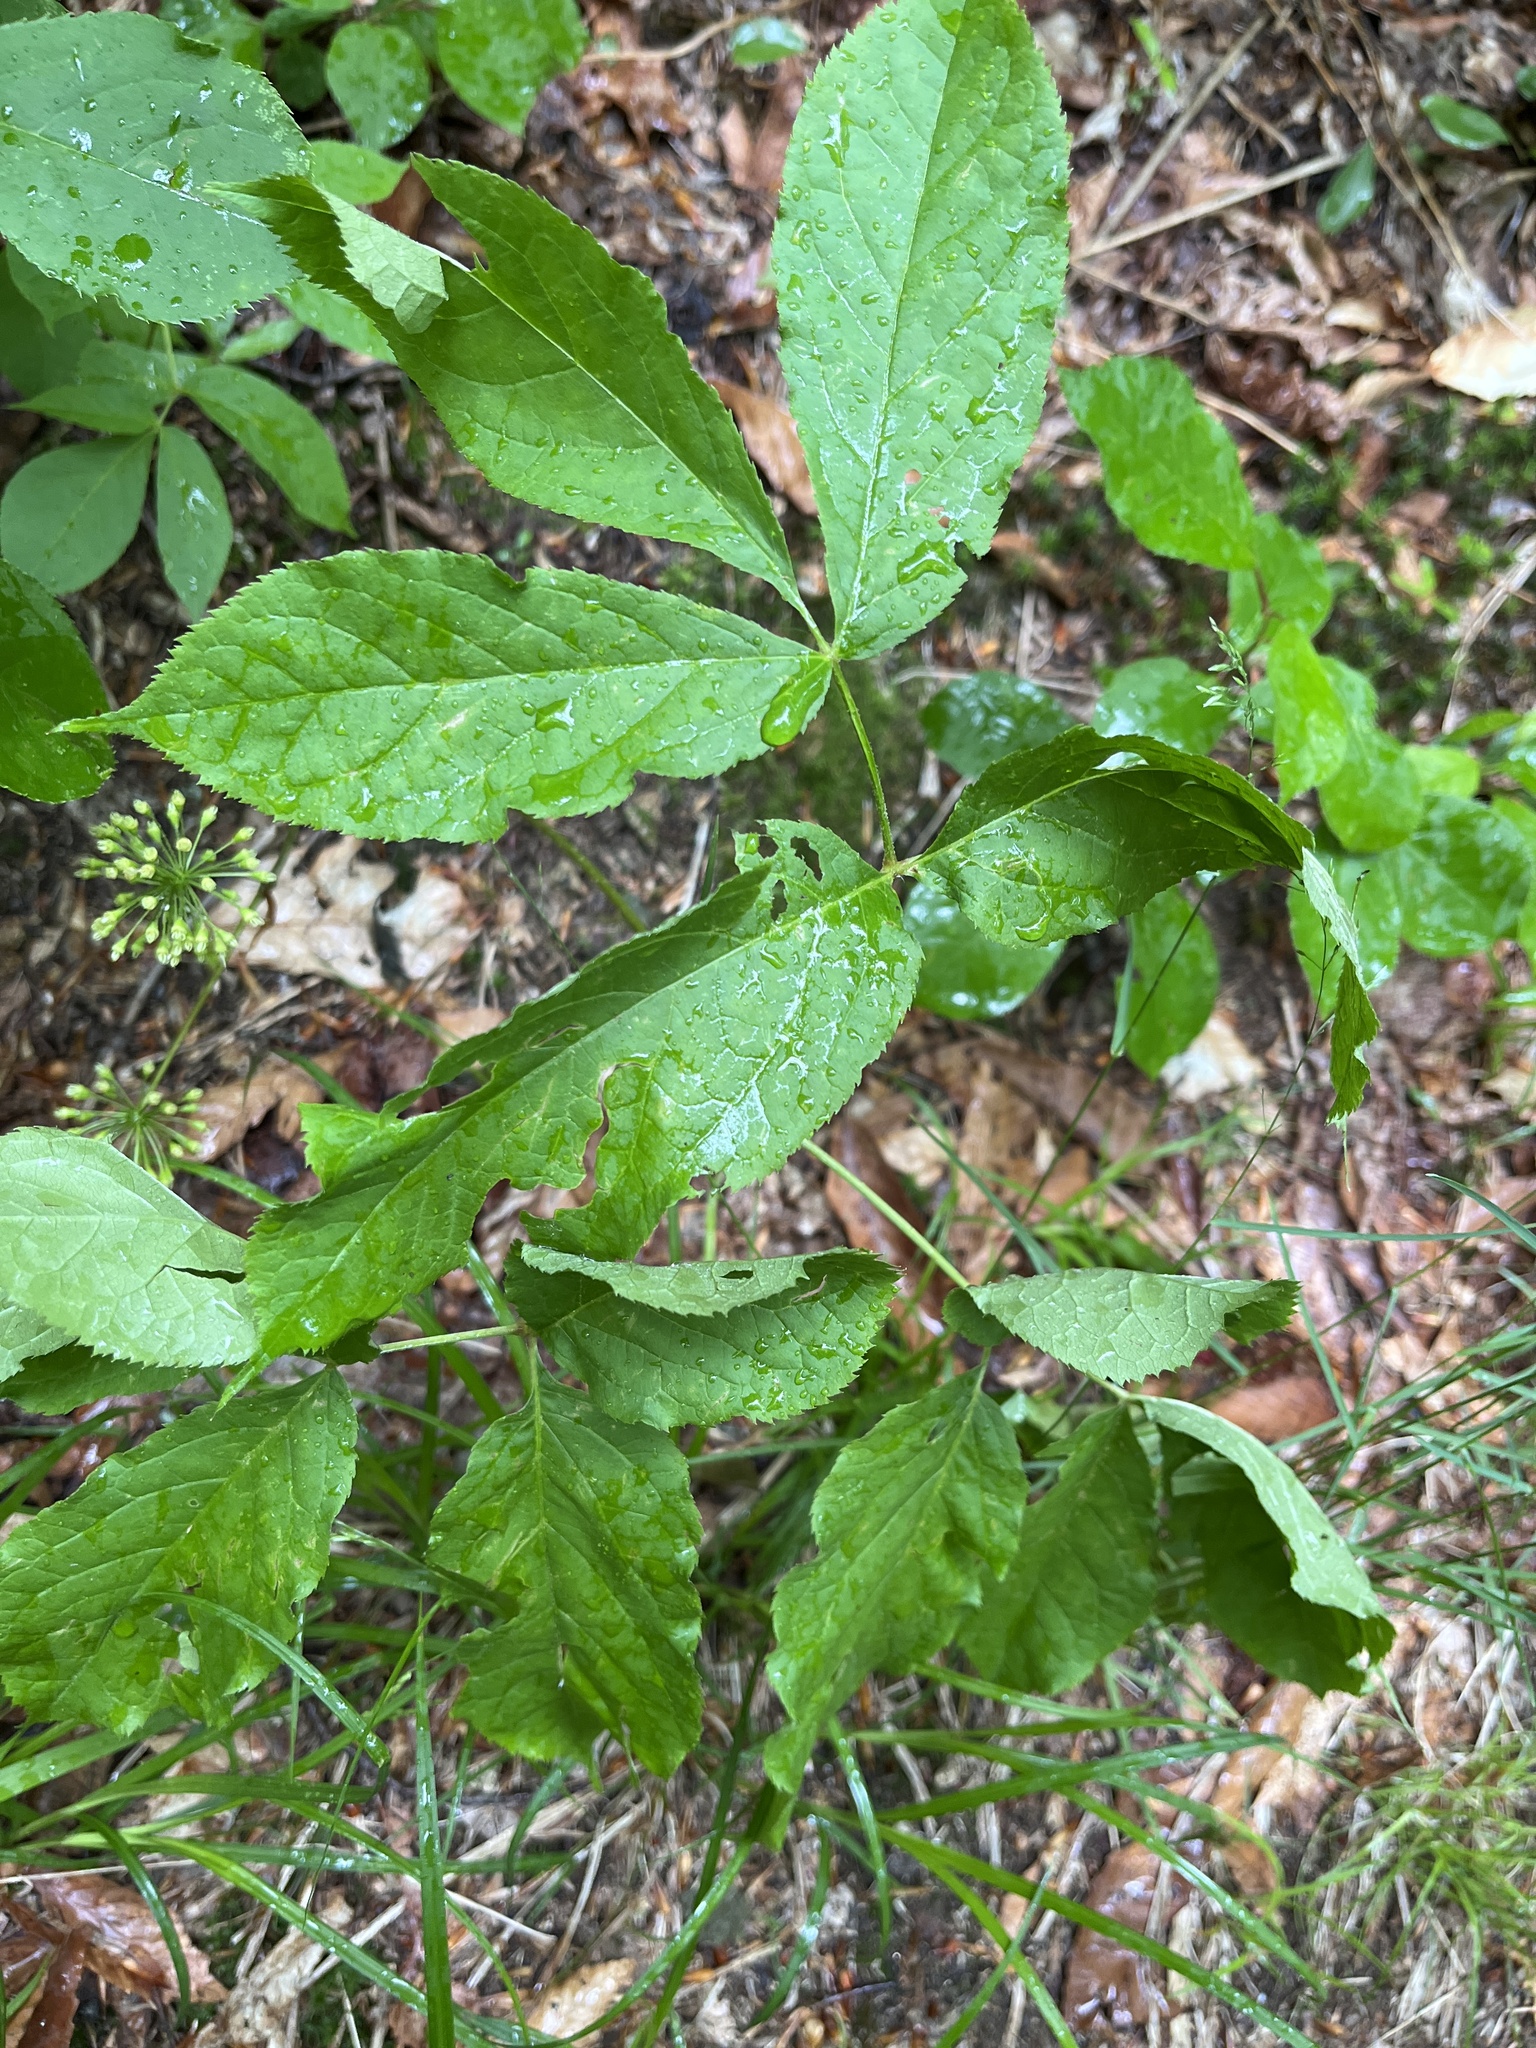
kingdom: Plantae
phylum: Tracheophyta
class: Magnoliopsida
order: Apiales
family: Araliaceae
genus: Aralia
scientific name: Aralia nudicaulis
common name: Wild sarsaparilla
